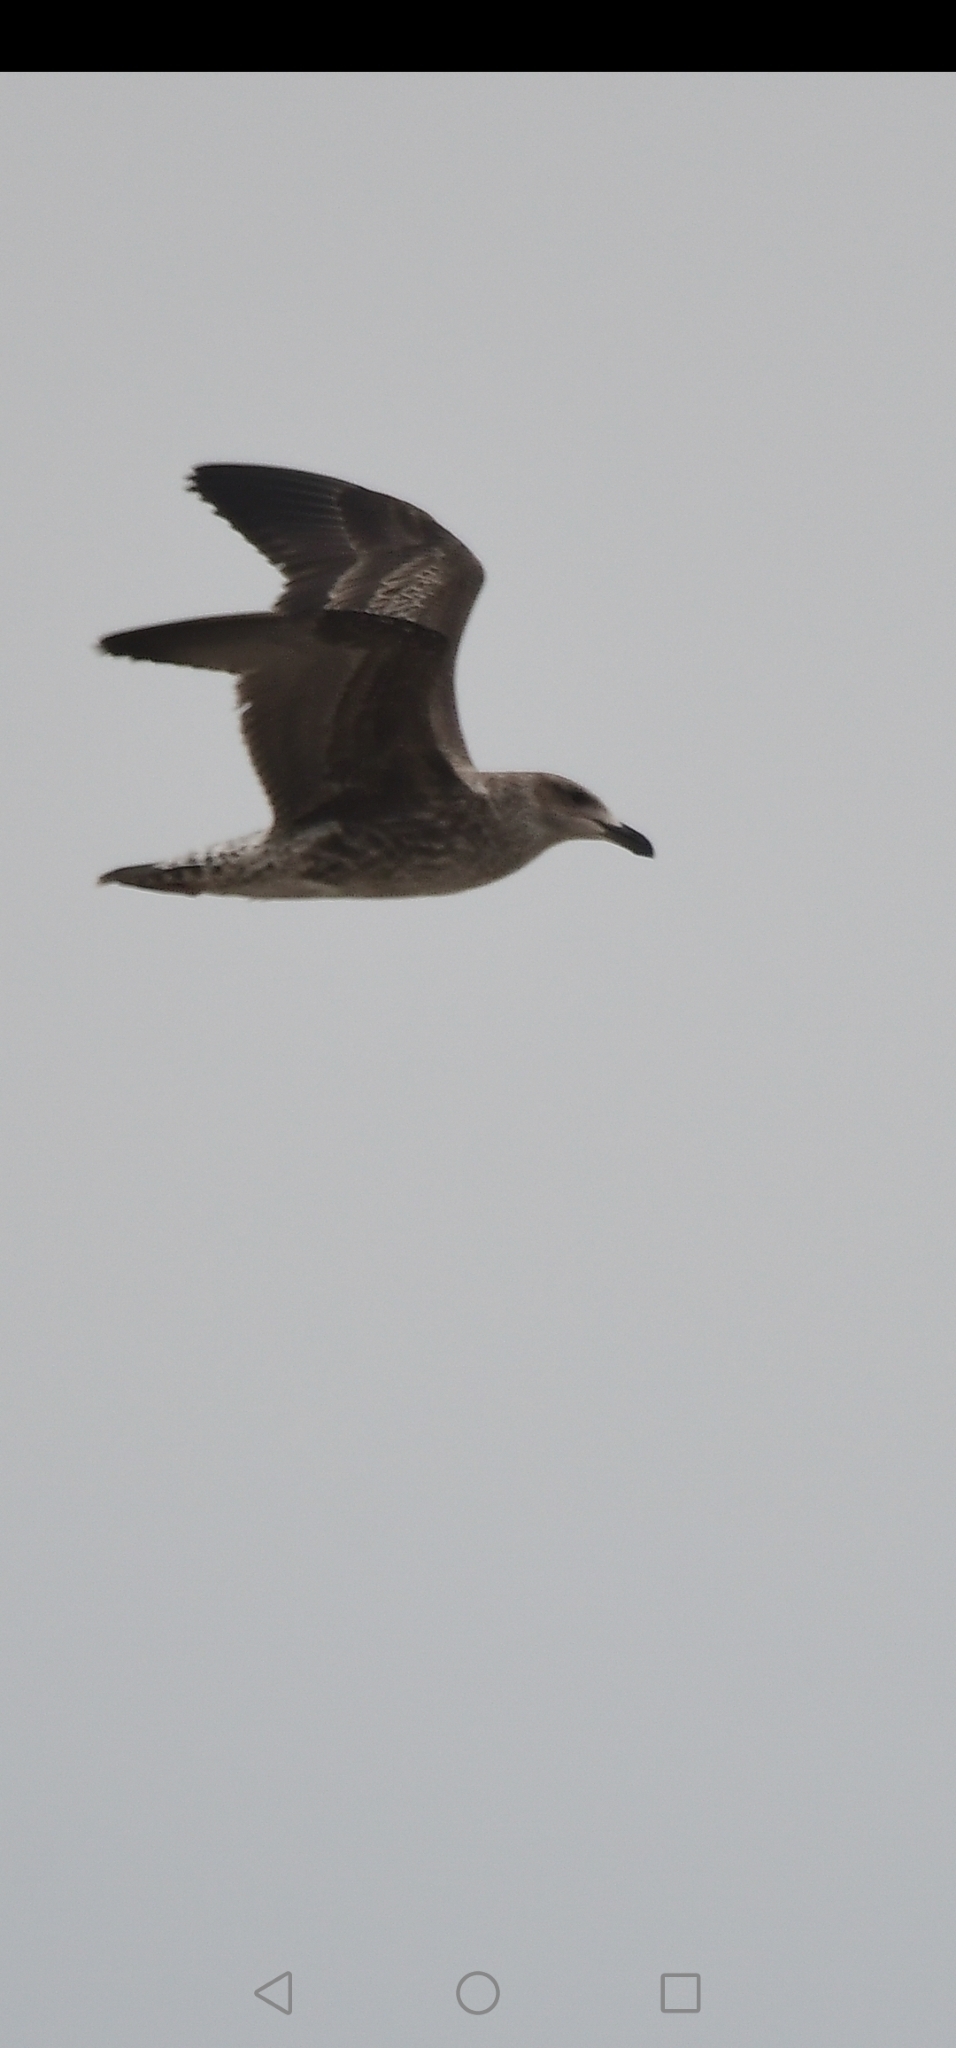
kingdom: Animalia
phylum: Chordata
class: Aves
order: Charadriiformes
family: Laridae
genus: Larus
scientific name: Larus dominicanus
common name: Kelp gull
